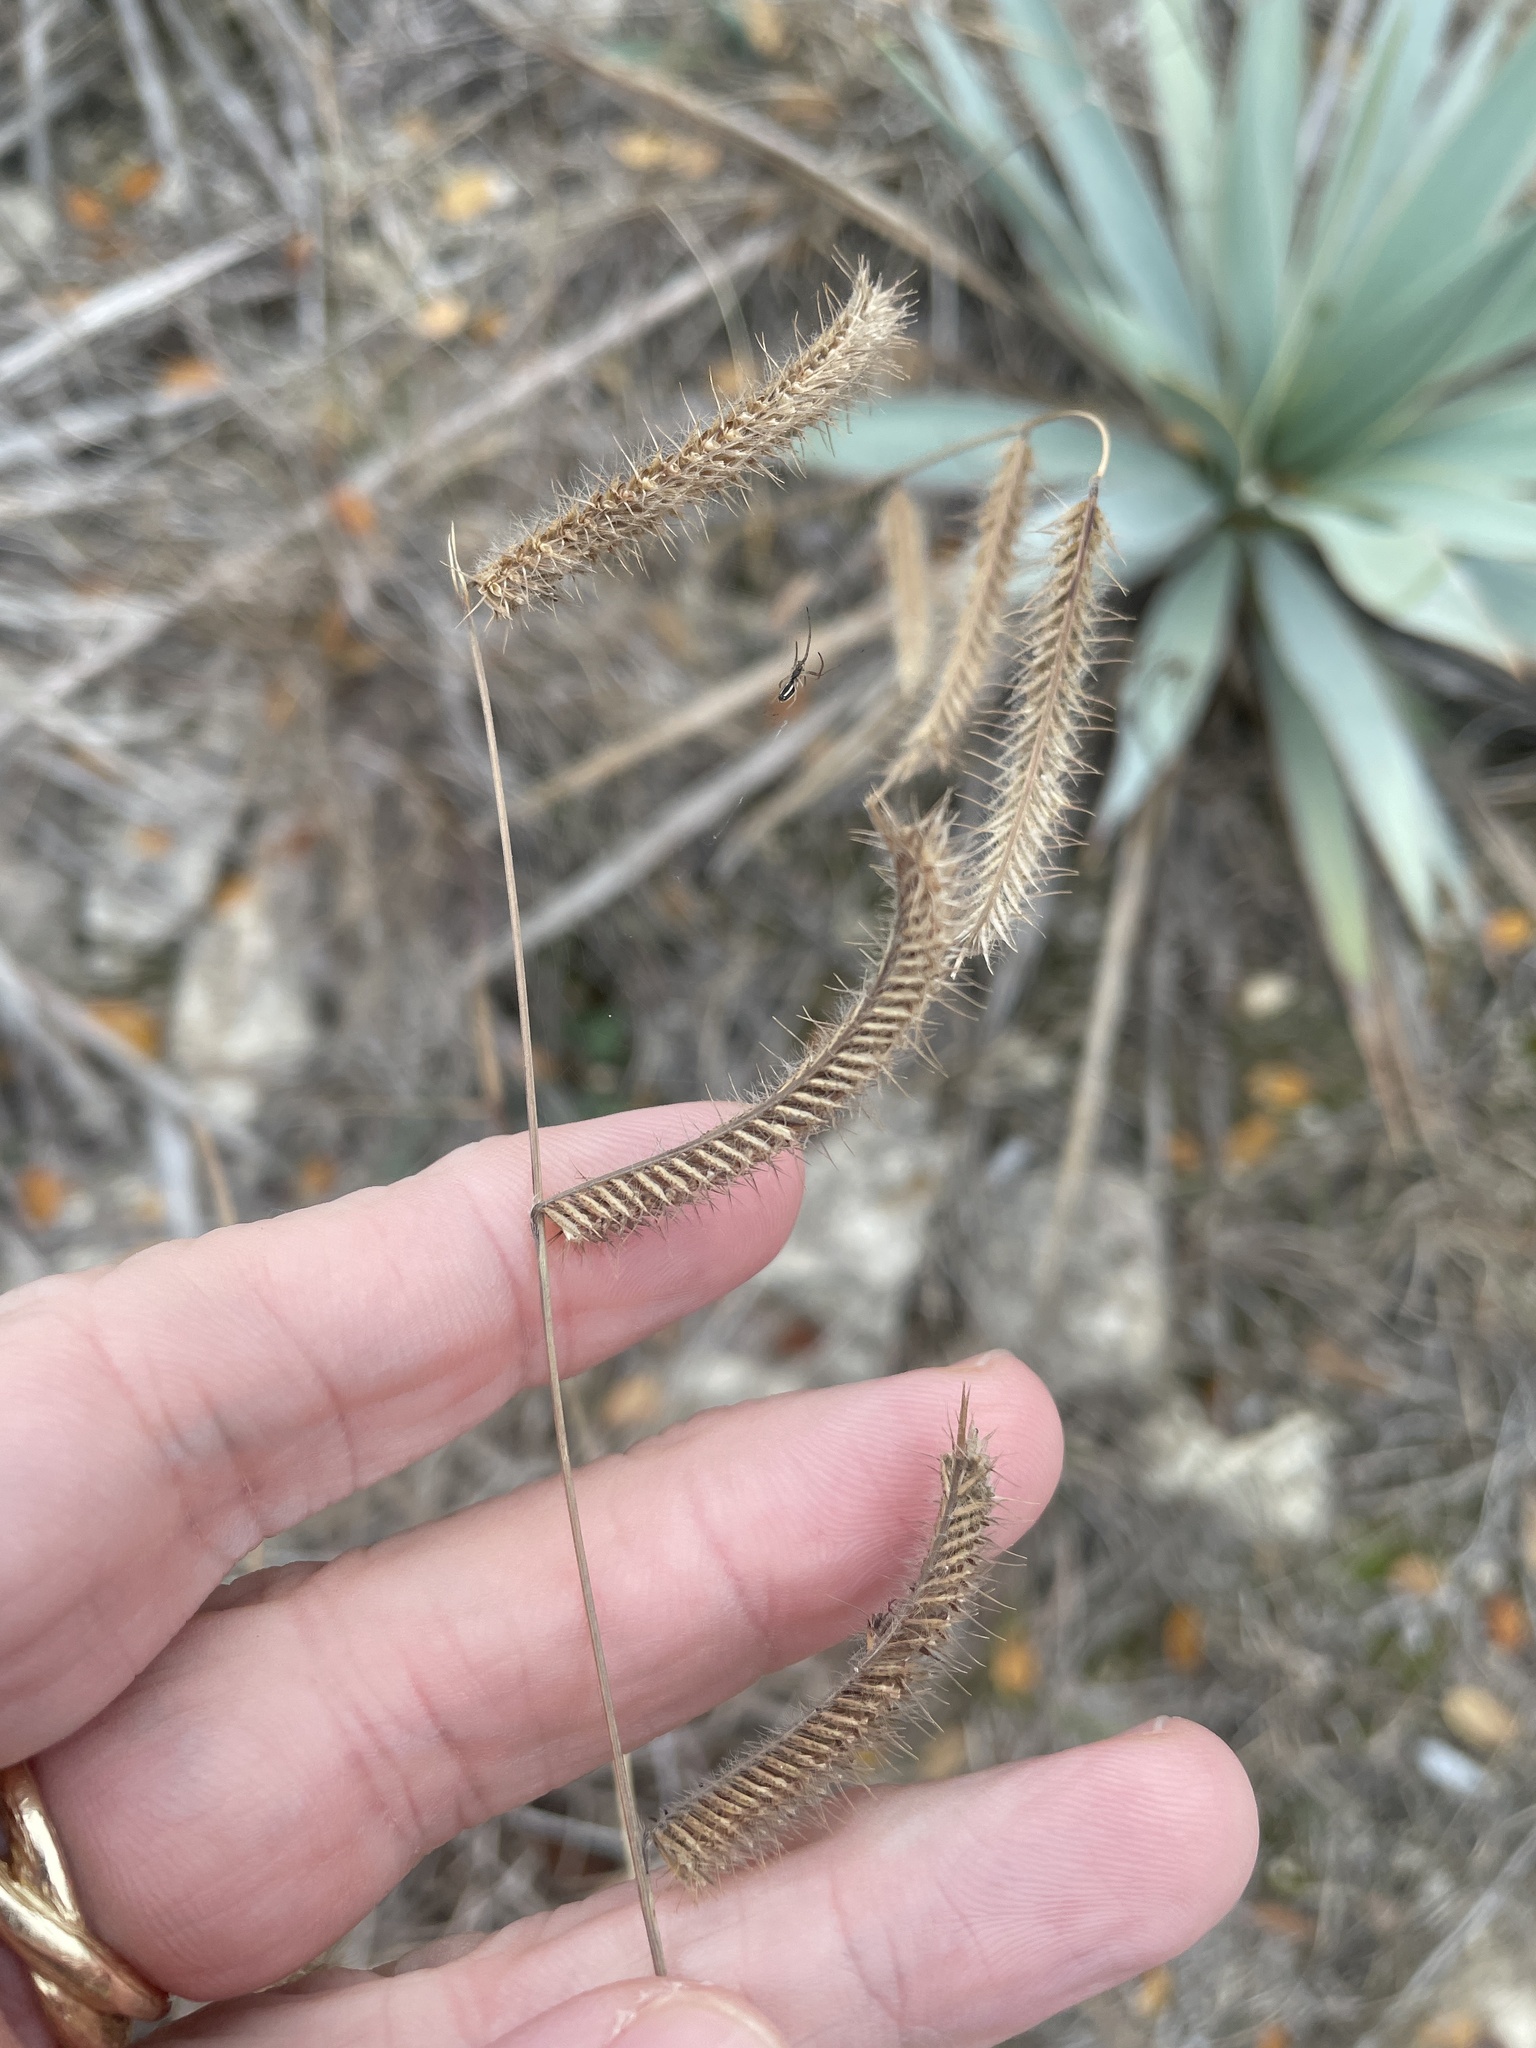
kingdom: Plantae
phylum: Tracheophyta
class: Liliopsida
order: Poales
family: Poaceae
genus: Bouteloua
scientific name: Bouteloua hirsuta
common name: Hairy grama
